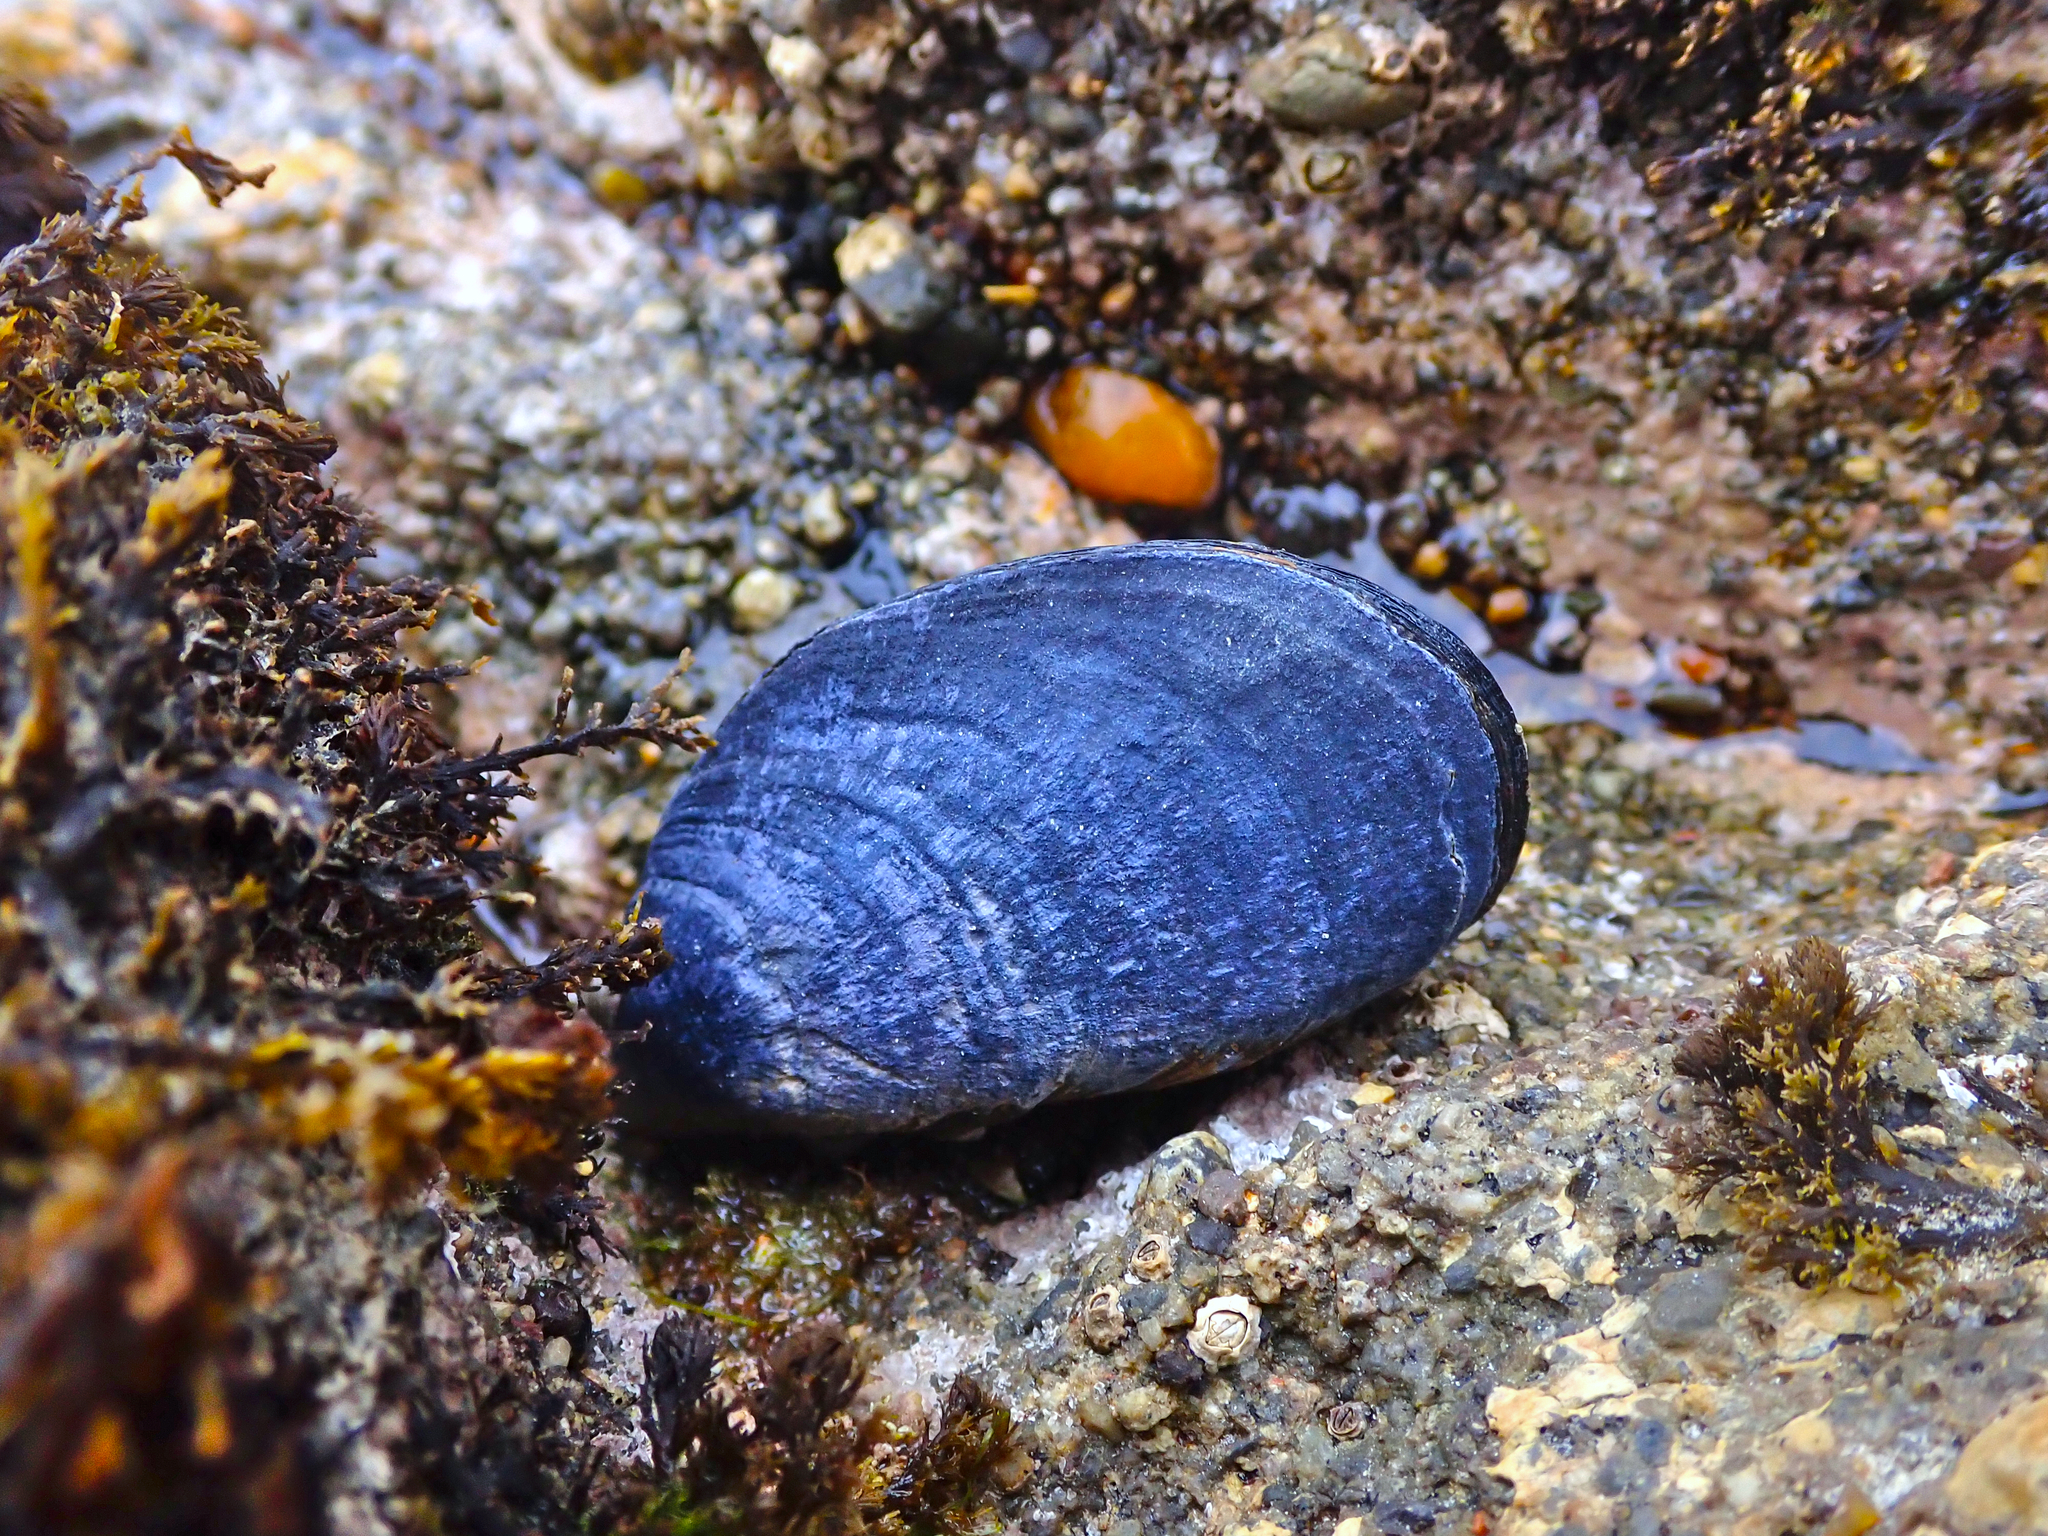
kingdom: Animalia
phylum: Mollusca
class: Bivalvia
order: Mytilida
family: Mytilidae
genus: Mytilus
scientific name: Mytilus planulatus
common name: Australian mussel
